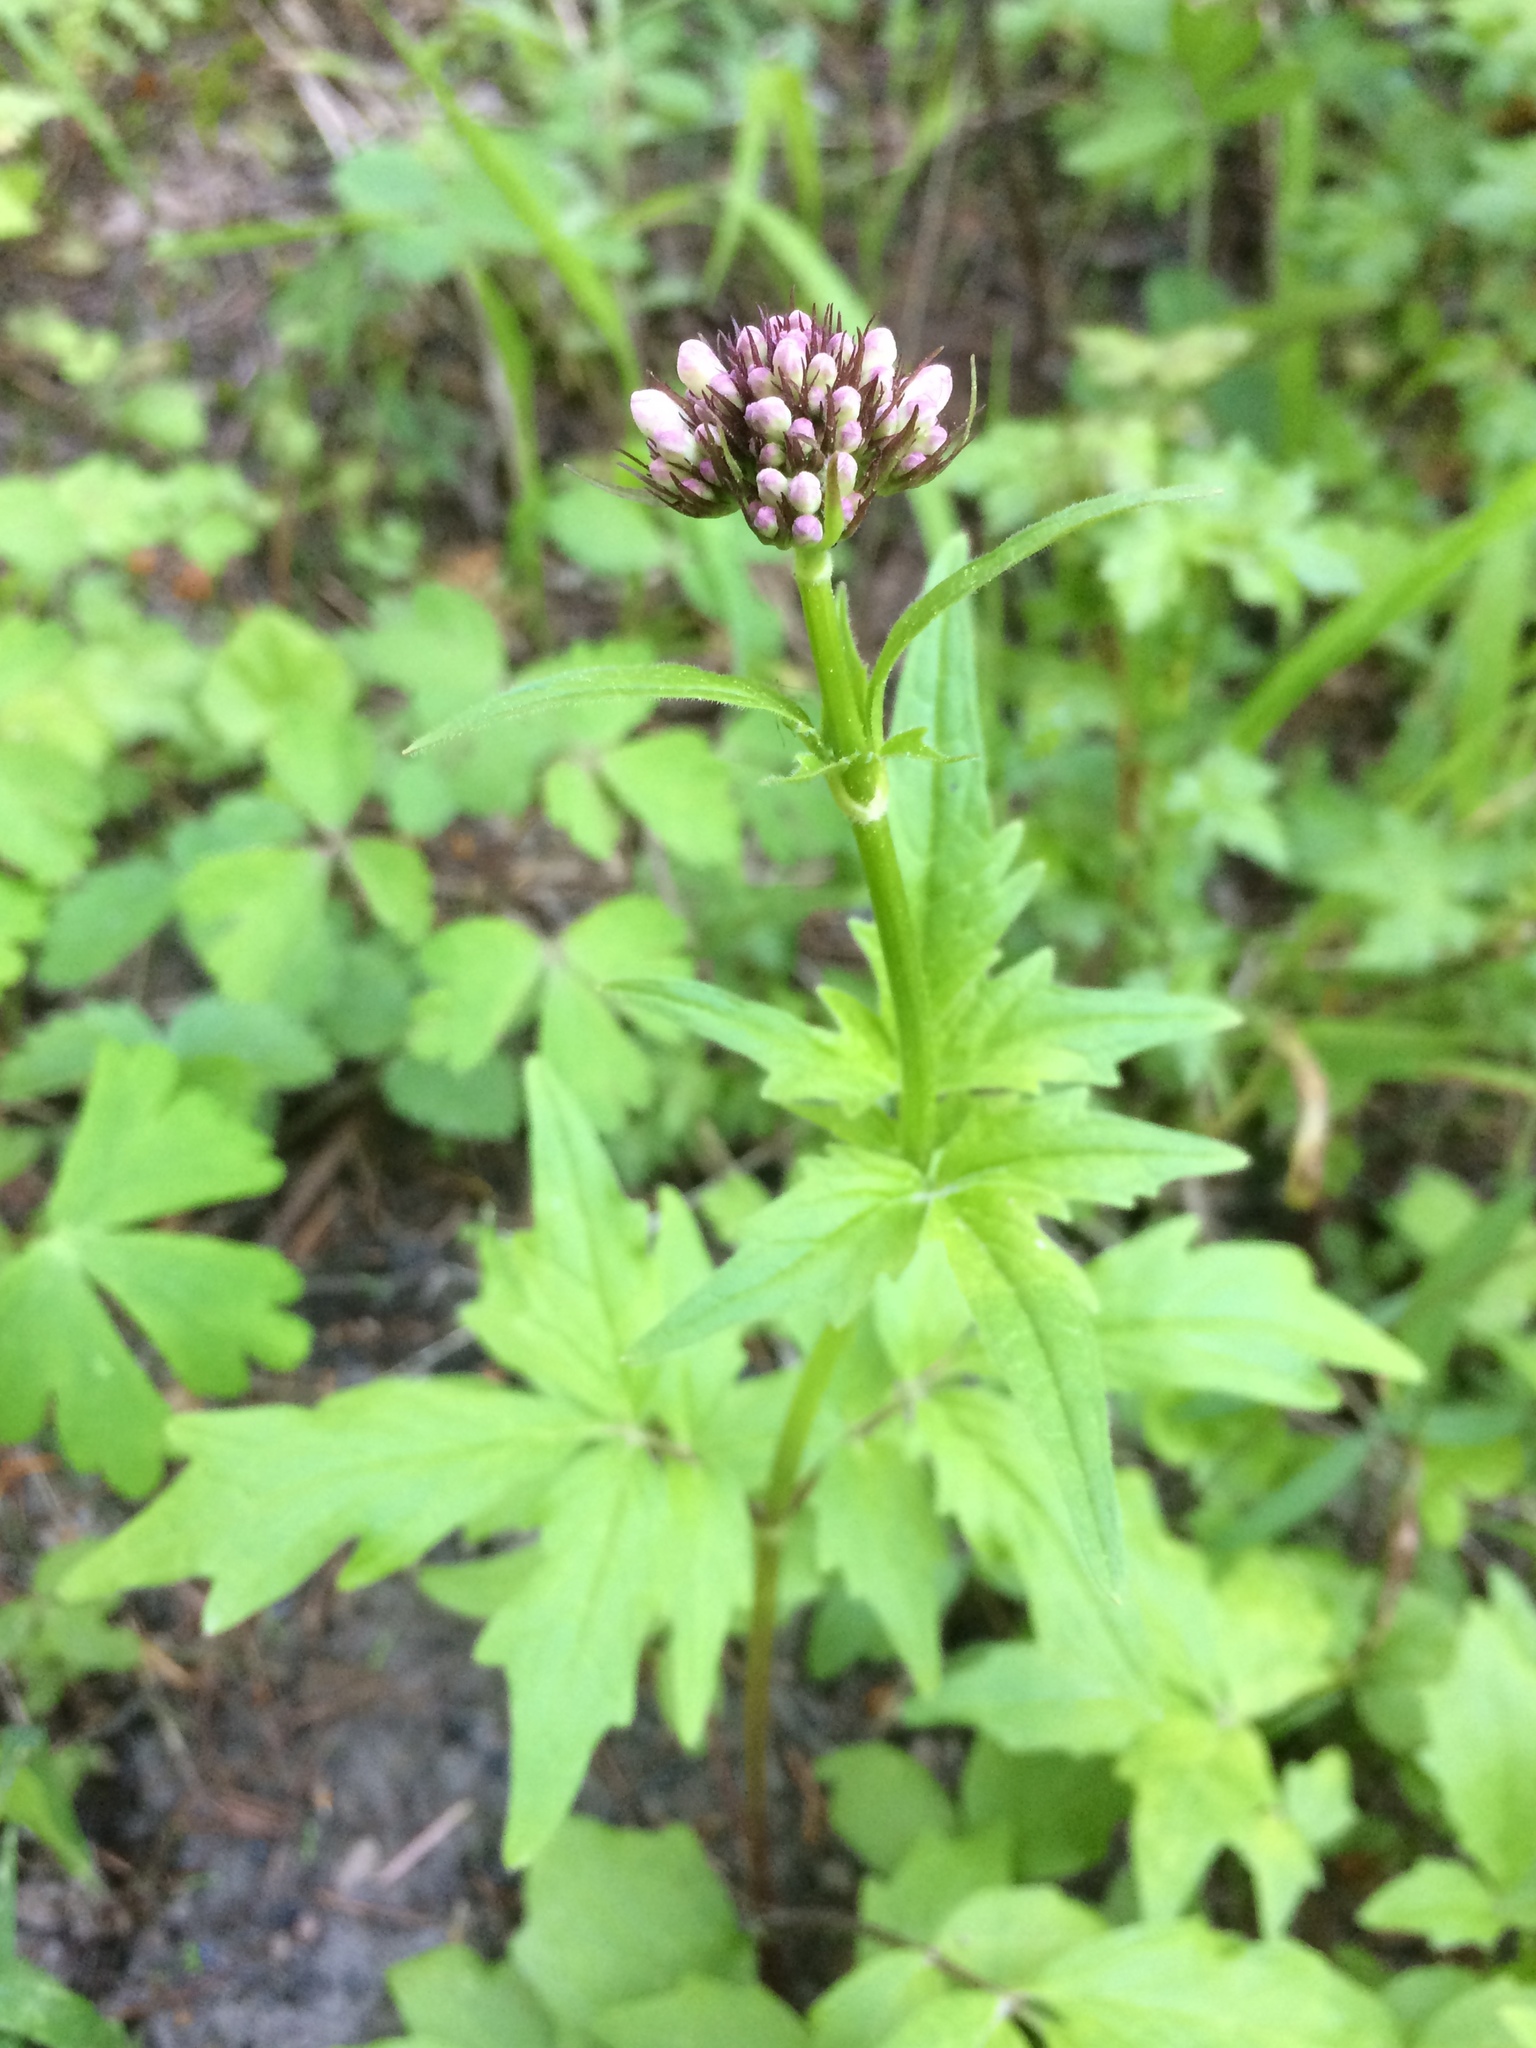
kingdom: Plantae
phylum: Tracheophyta
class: Magnoliopsida
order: Dipsacales
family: Caprifoliaceae
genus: Valeriana
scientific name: Valeriana sitchensis
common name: Pacific valerian
